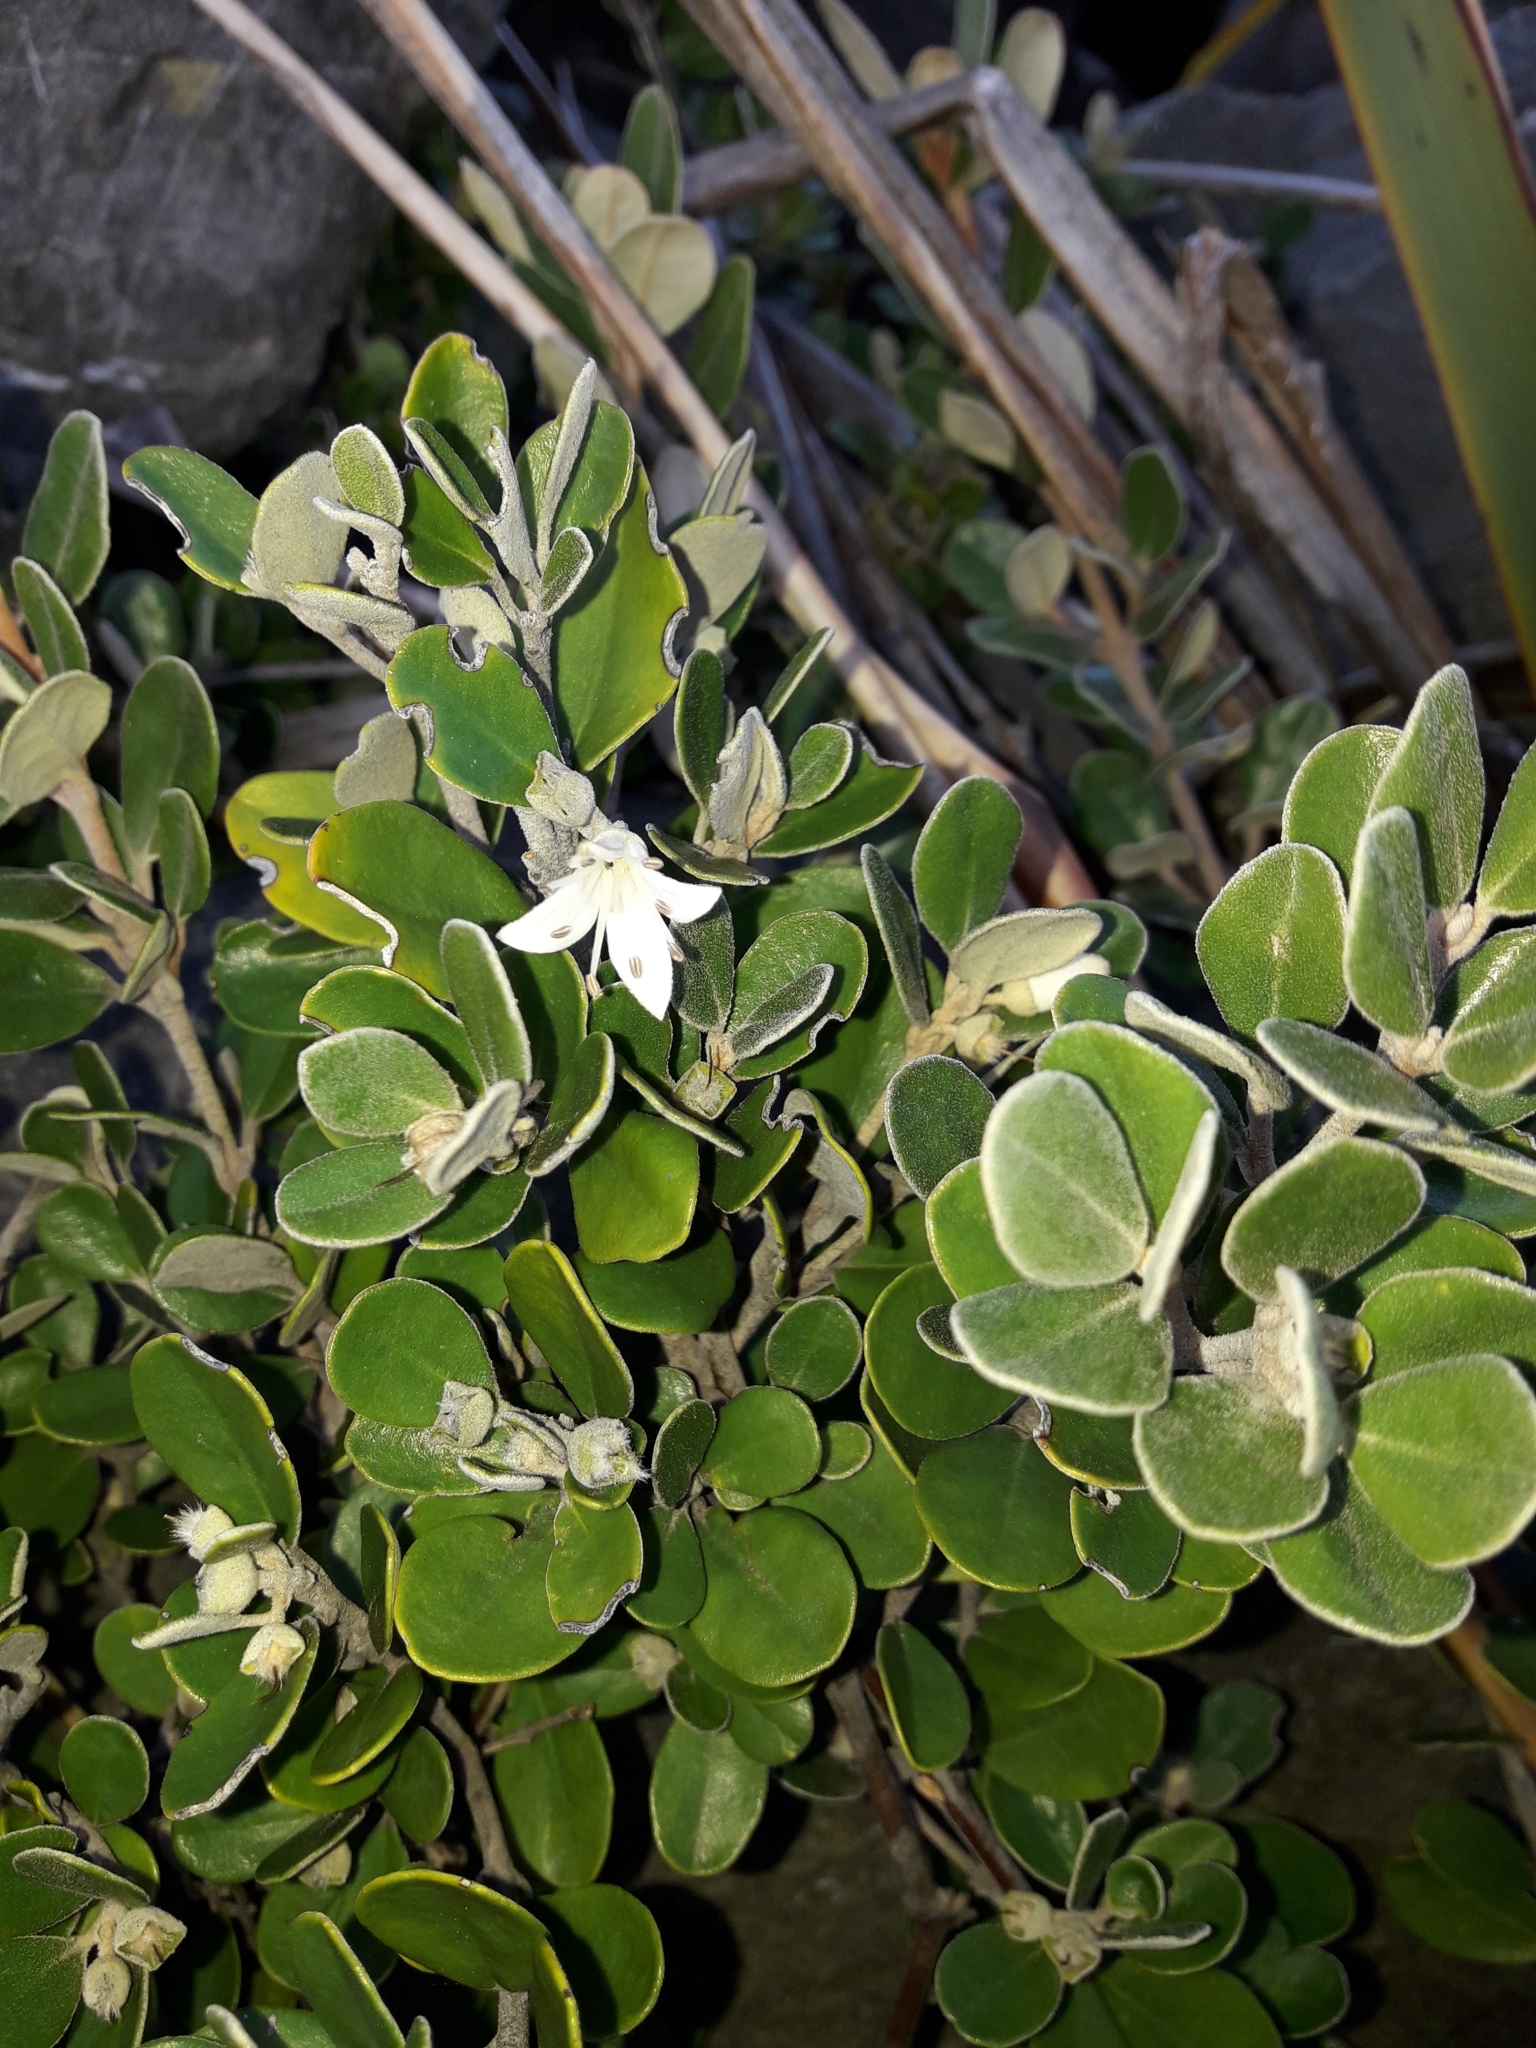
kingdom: Plantae
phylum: Tracheophyta
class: Magnoliopsida
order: Sapindales
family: Rutaceae
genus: Correa
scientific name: Correa alba
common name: White correa
